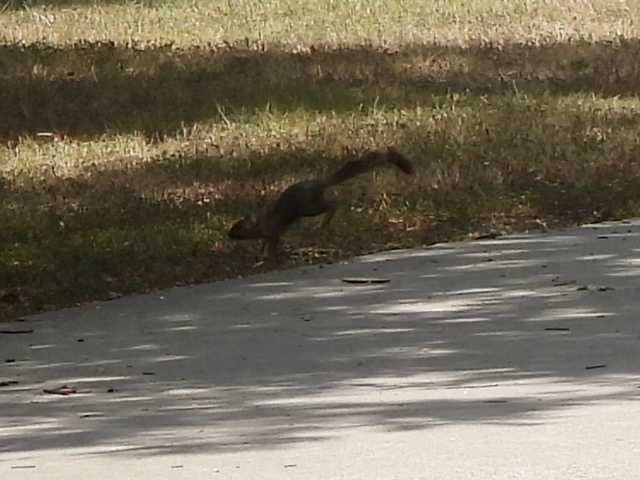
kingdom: Animalia
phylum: Chordata
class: Mammalia
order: Rodentia
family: Sciuridae
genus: Sciurus
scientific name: Sciurus niger
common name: Fox squirrel
